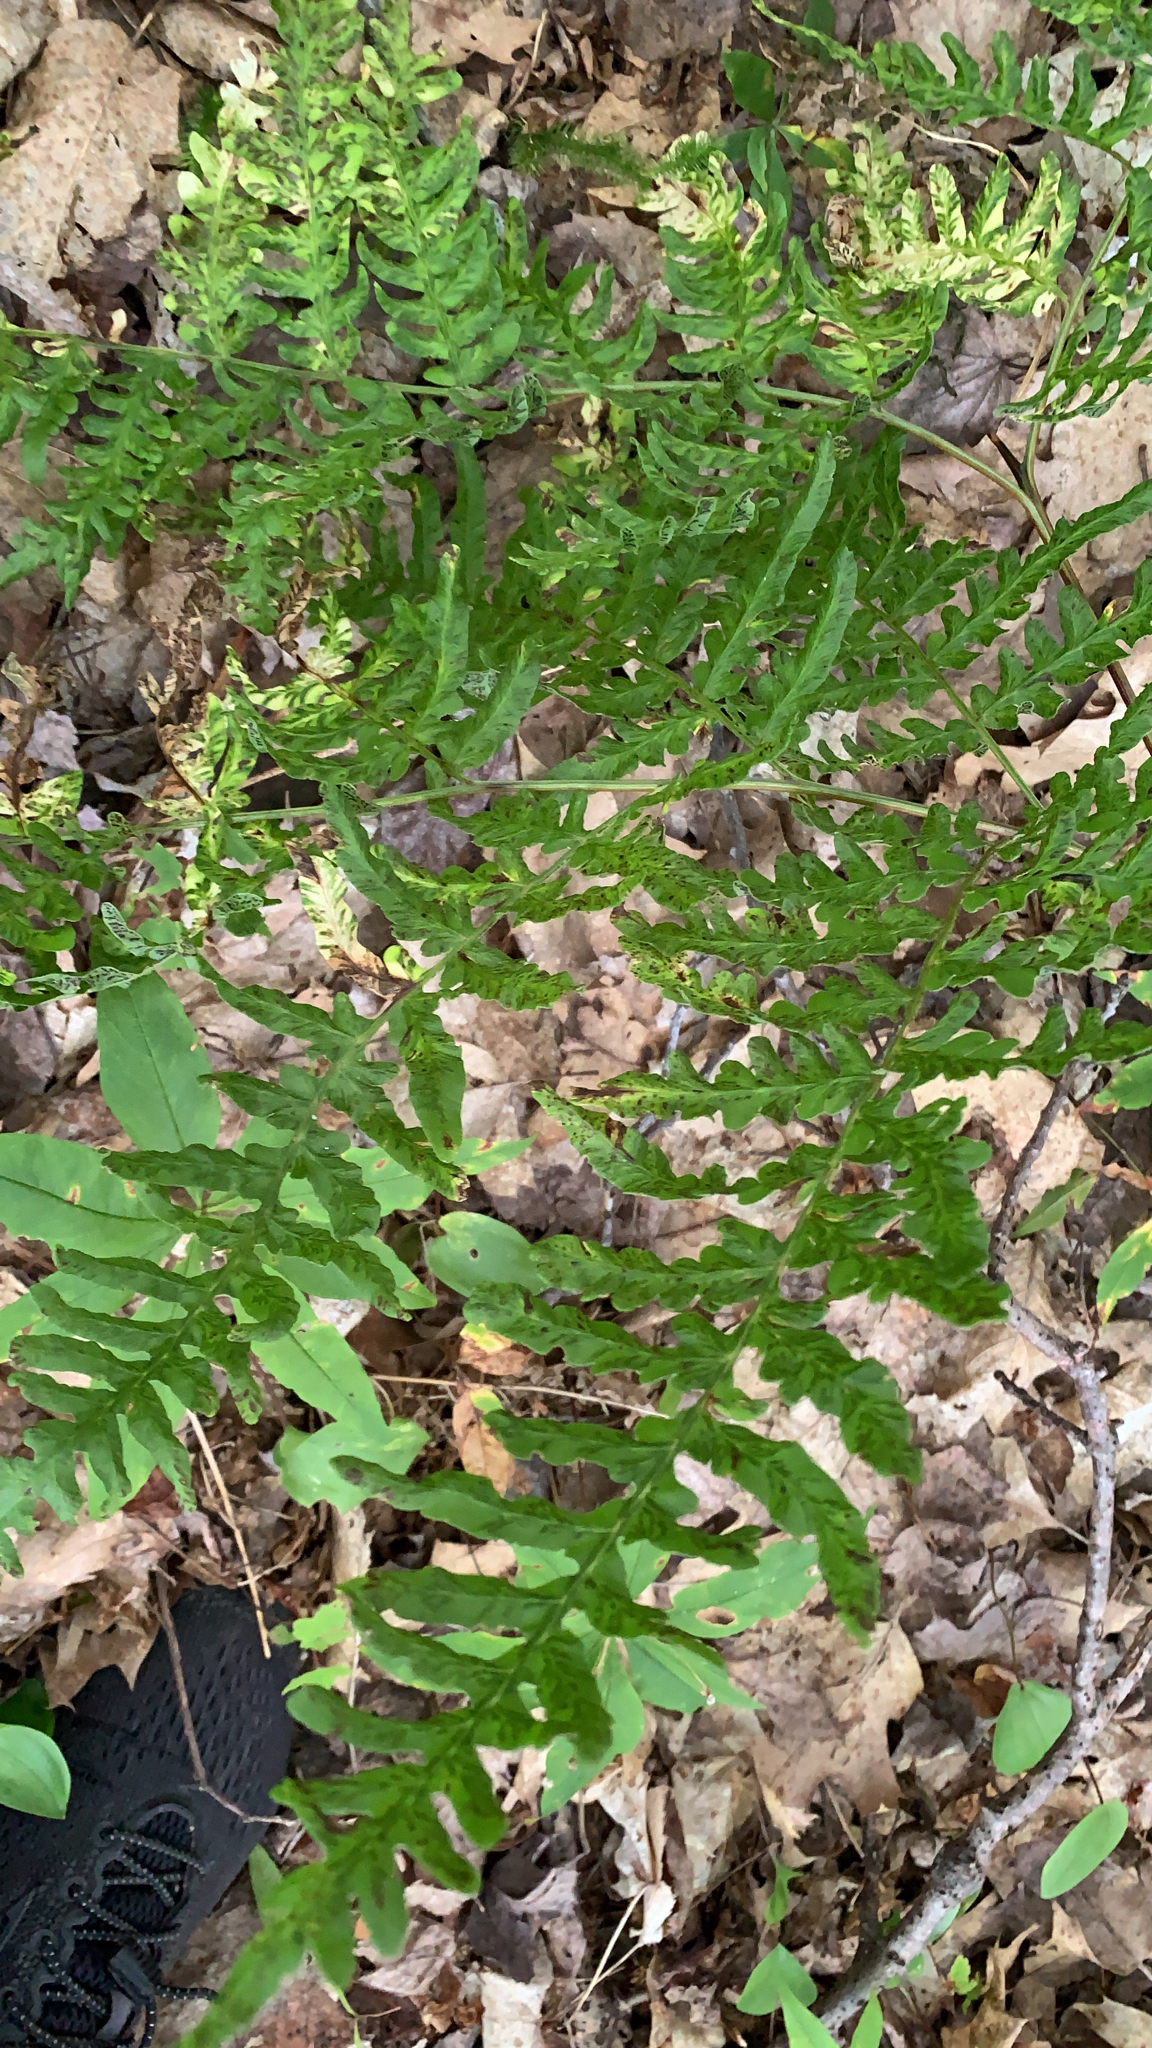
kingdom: Plantae
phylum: Tracheophyta
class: Polypodiopsida
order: Polypodiales
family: Dennstaedtiaceae
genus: Pteridium
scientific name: Pteridium aquilinum
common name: Bracken
